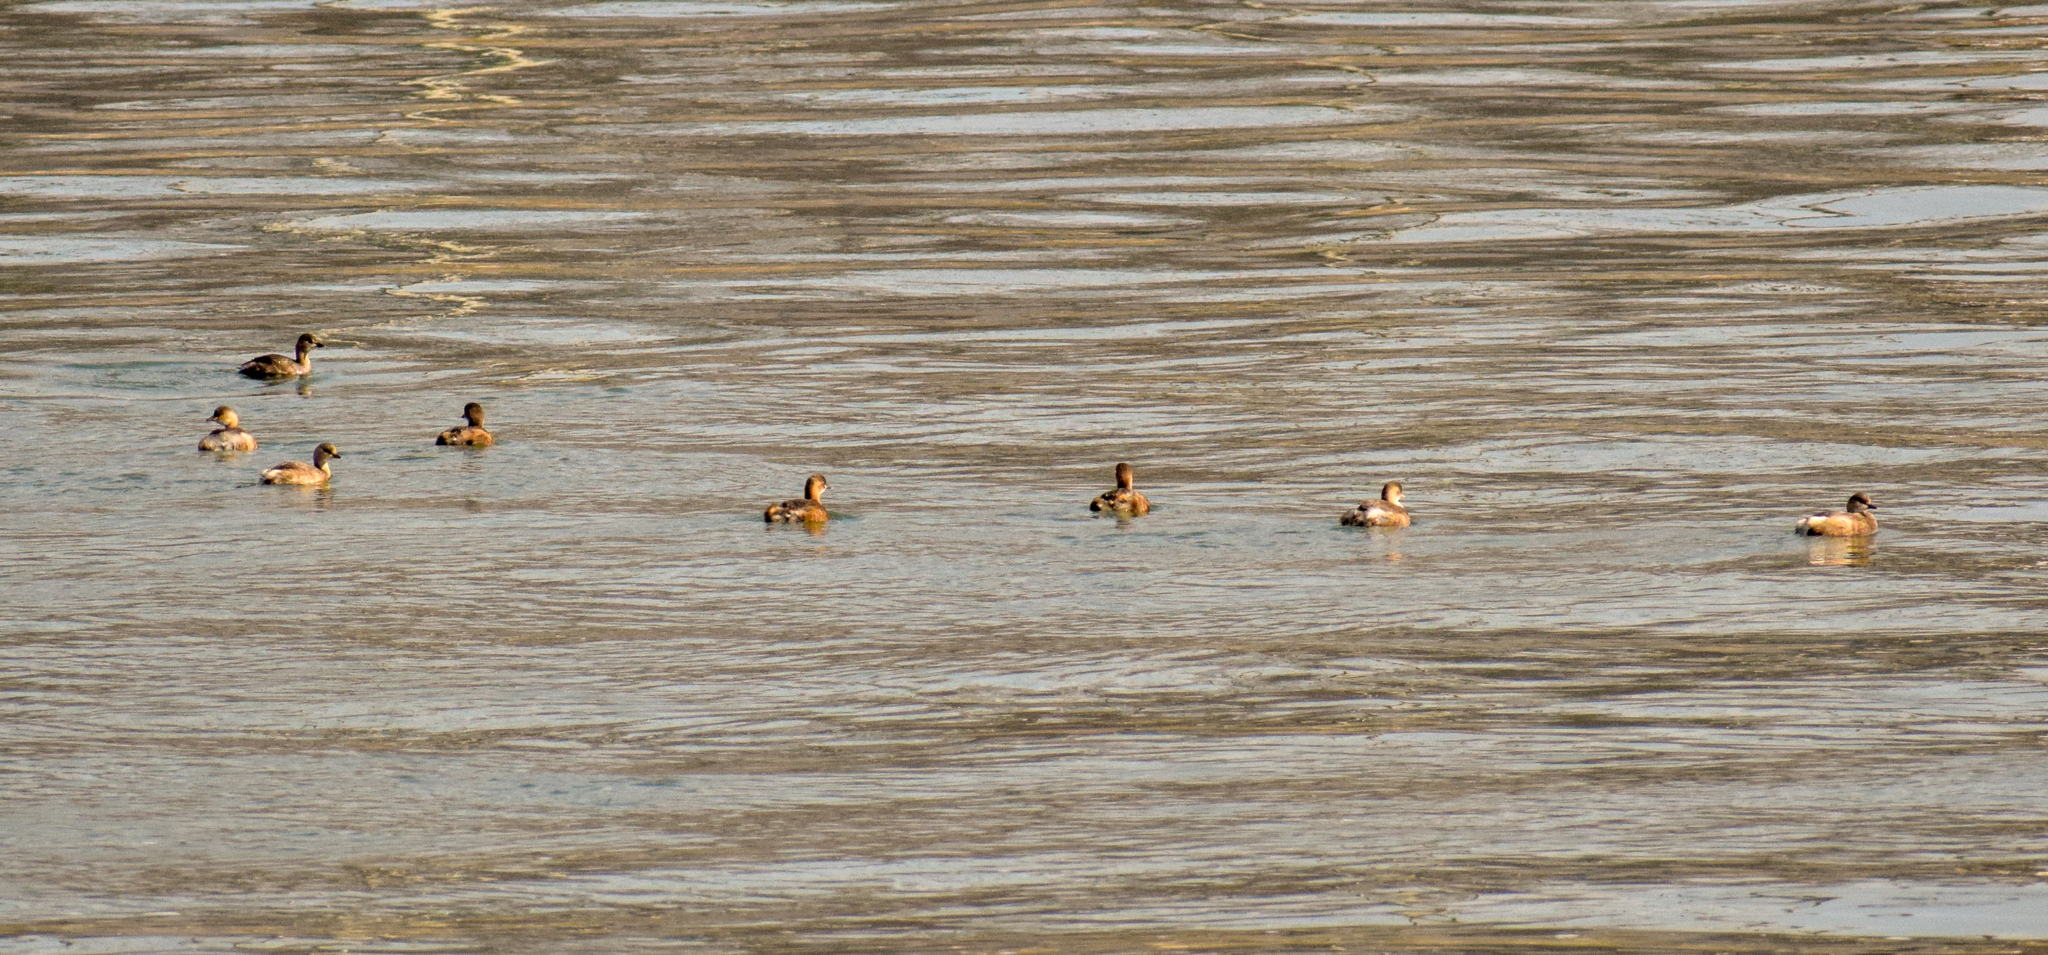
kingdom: Animalia
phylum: Chordata
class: Aves
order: Podicipediformes
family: Podicipedidae
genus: Tachybaptus
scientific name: Tachybaptus ruficollis
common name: Little grebe
